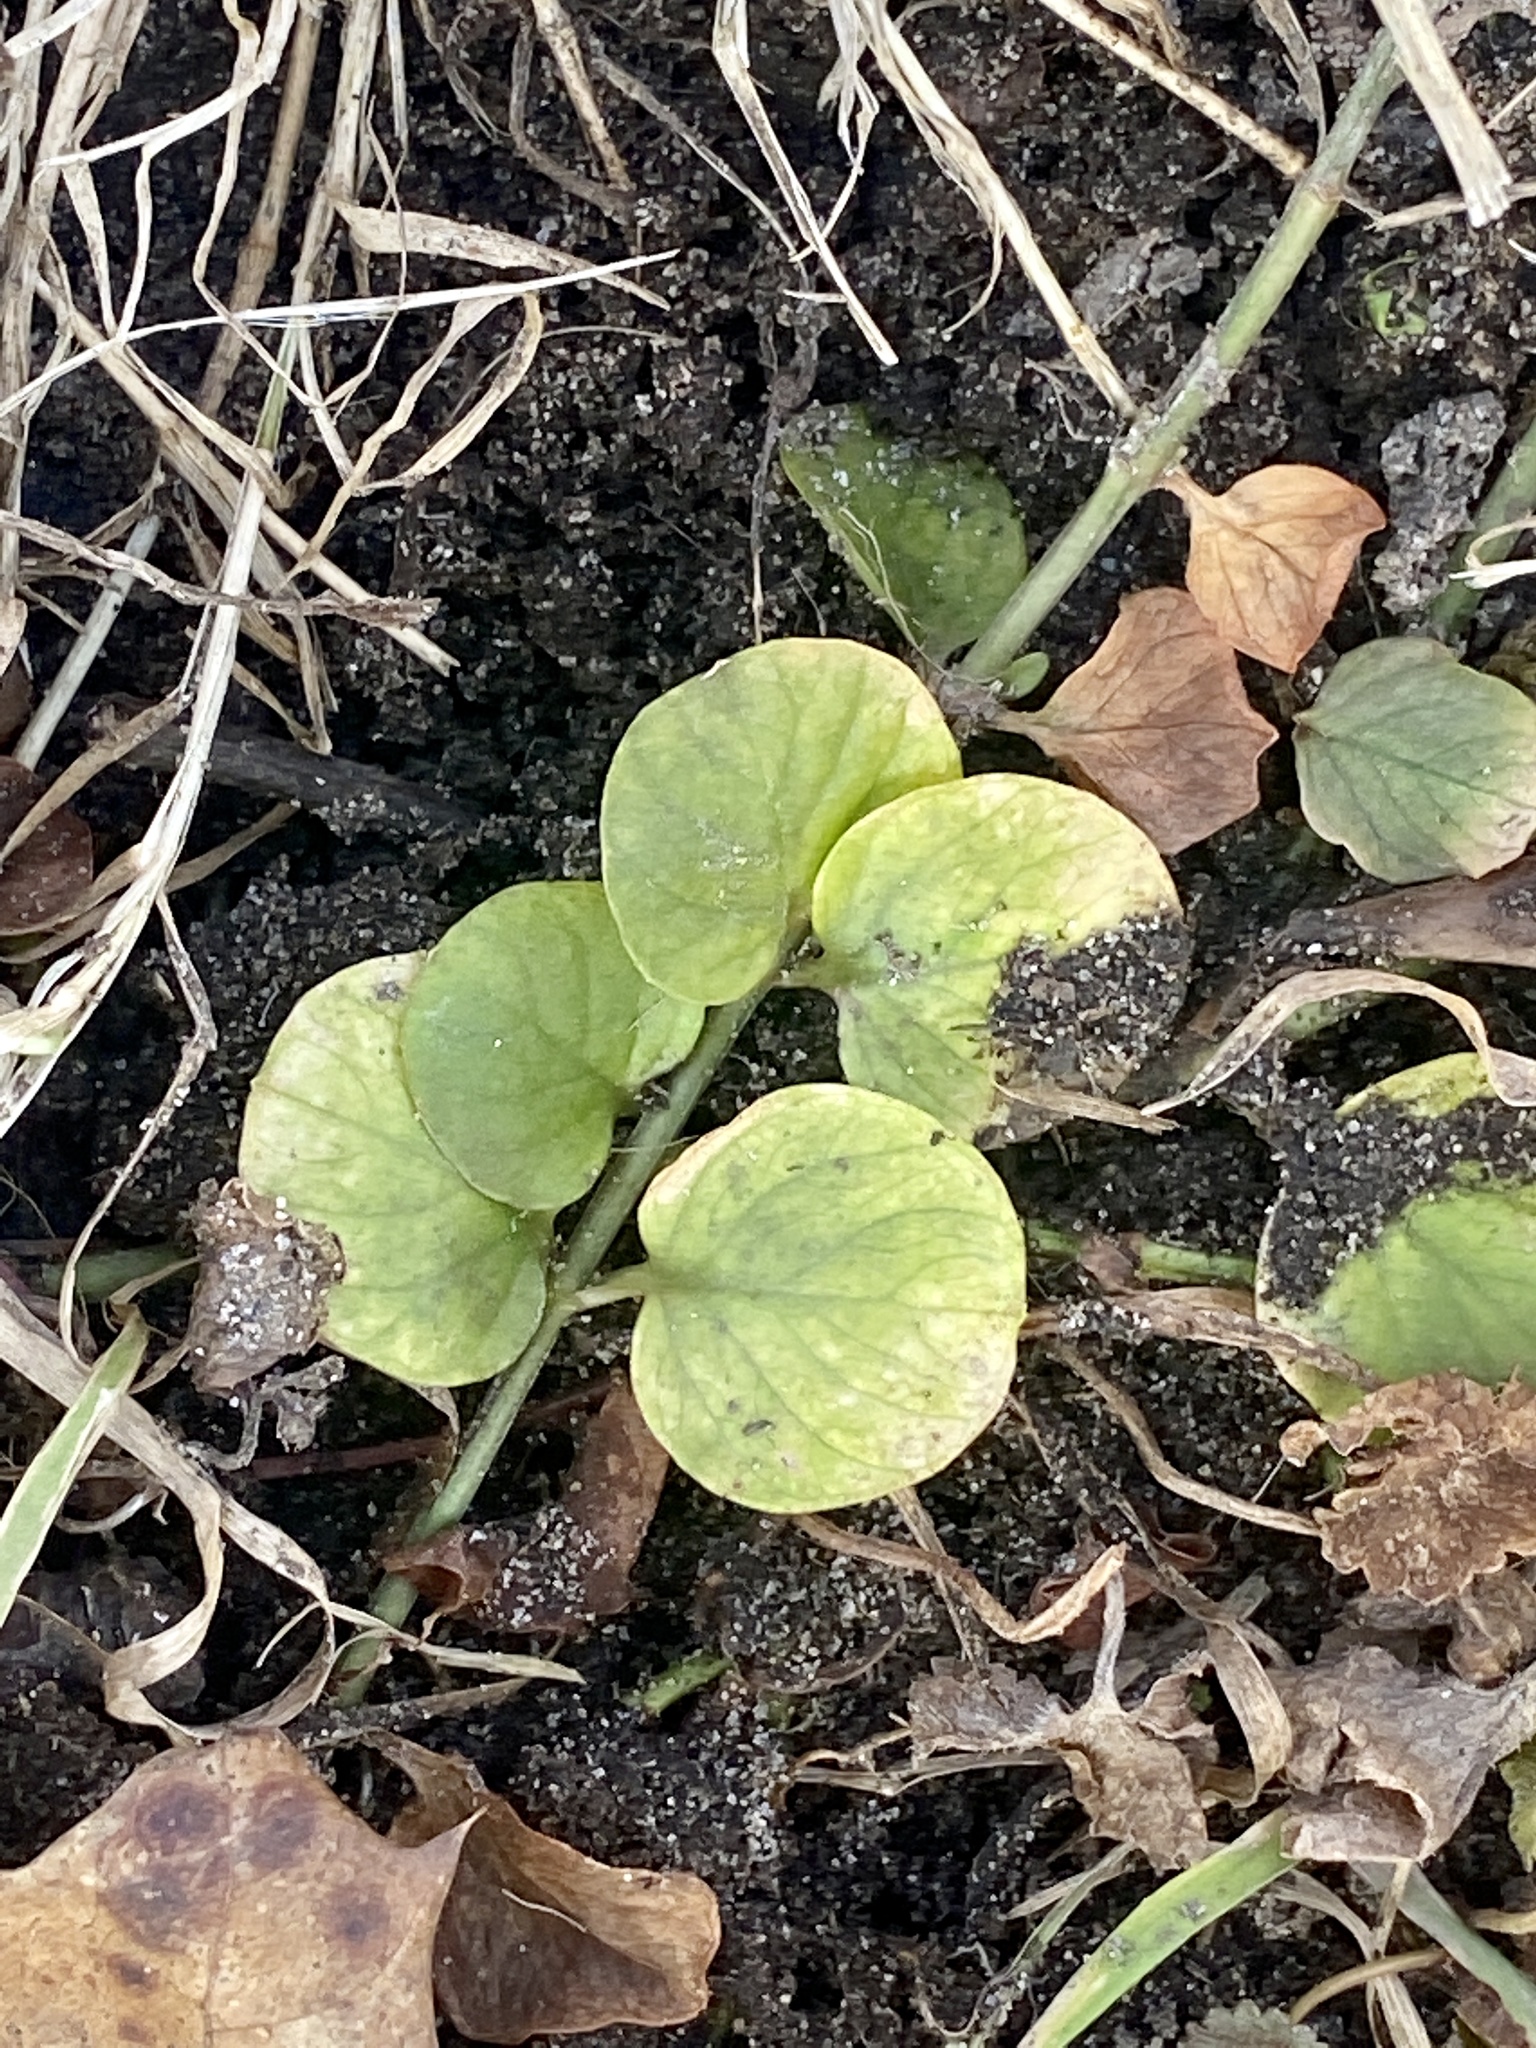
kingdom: Plantae
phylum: Tracheophyta
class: Magnoliopsida
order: Ericales
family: Primulaceae
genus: Lysimachia
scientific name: Lysimachia nummularia
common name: Moneywort
